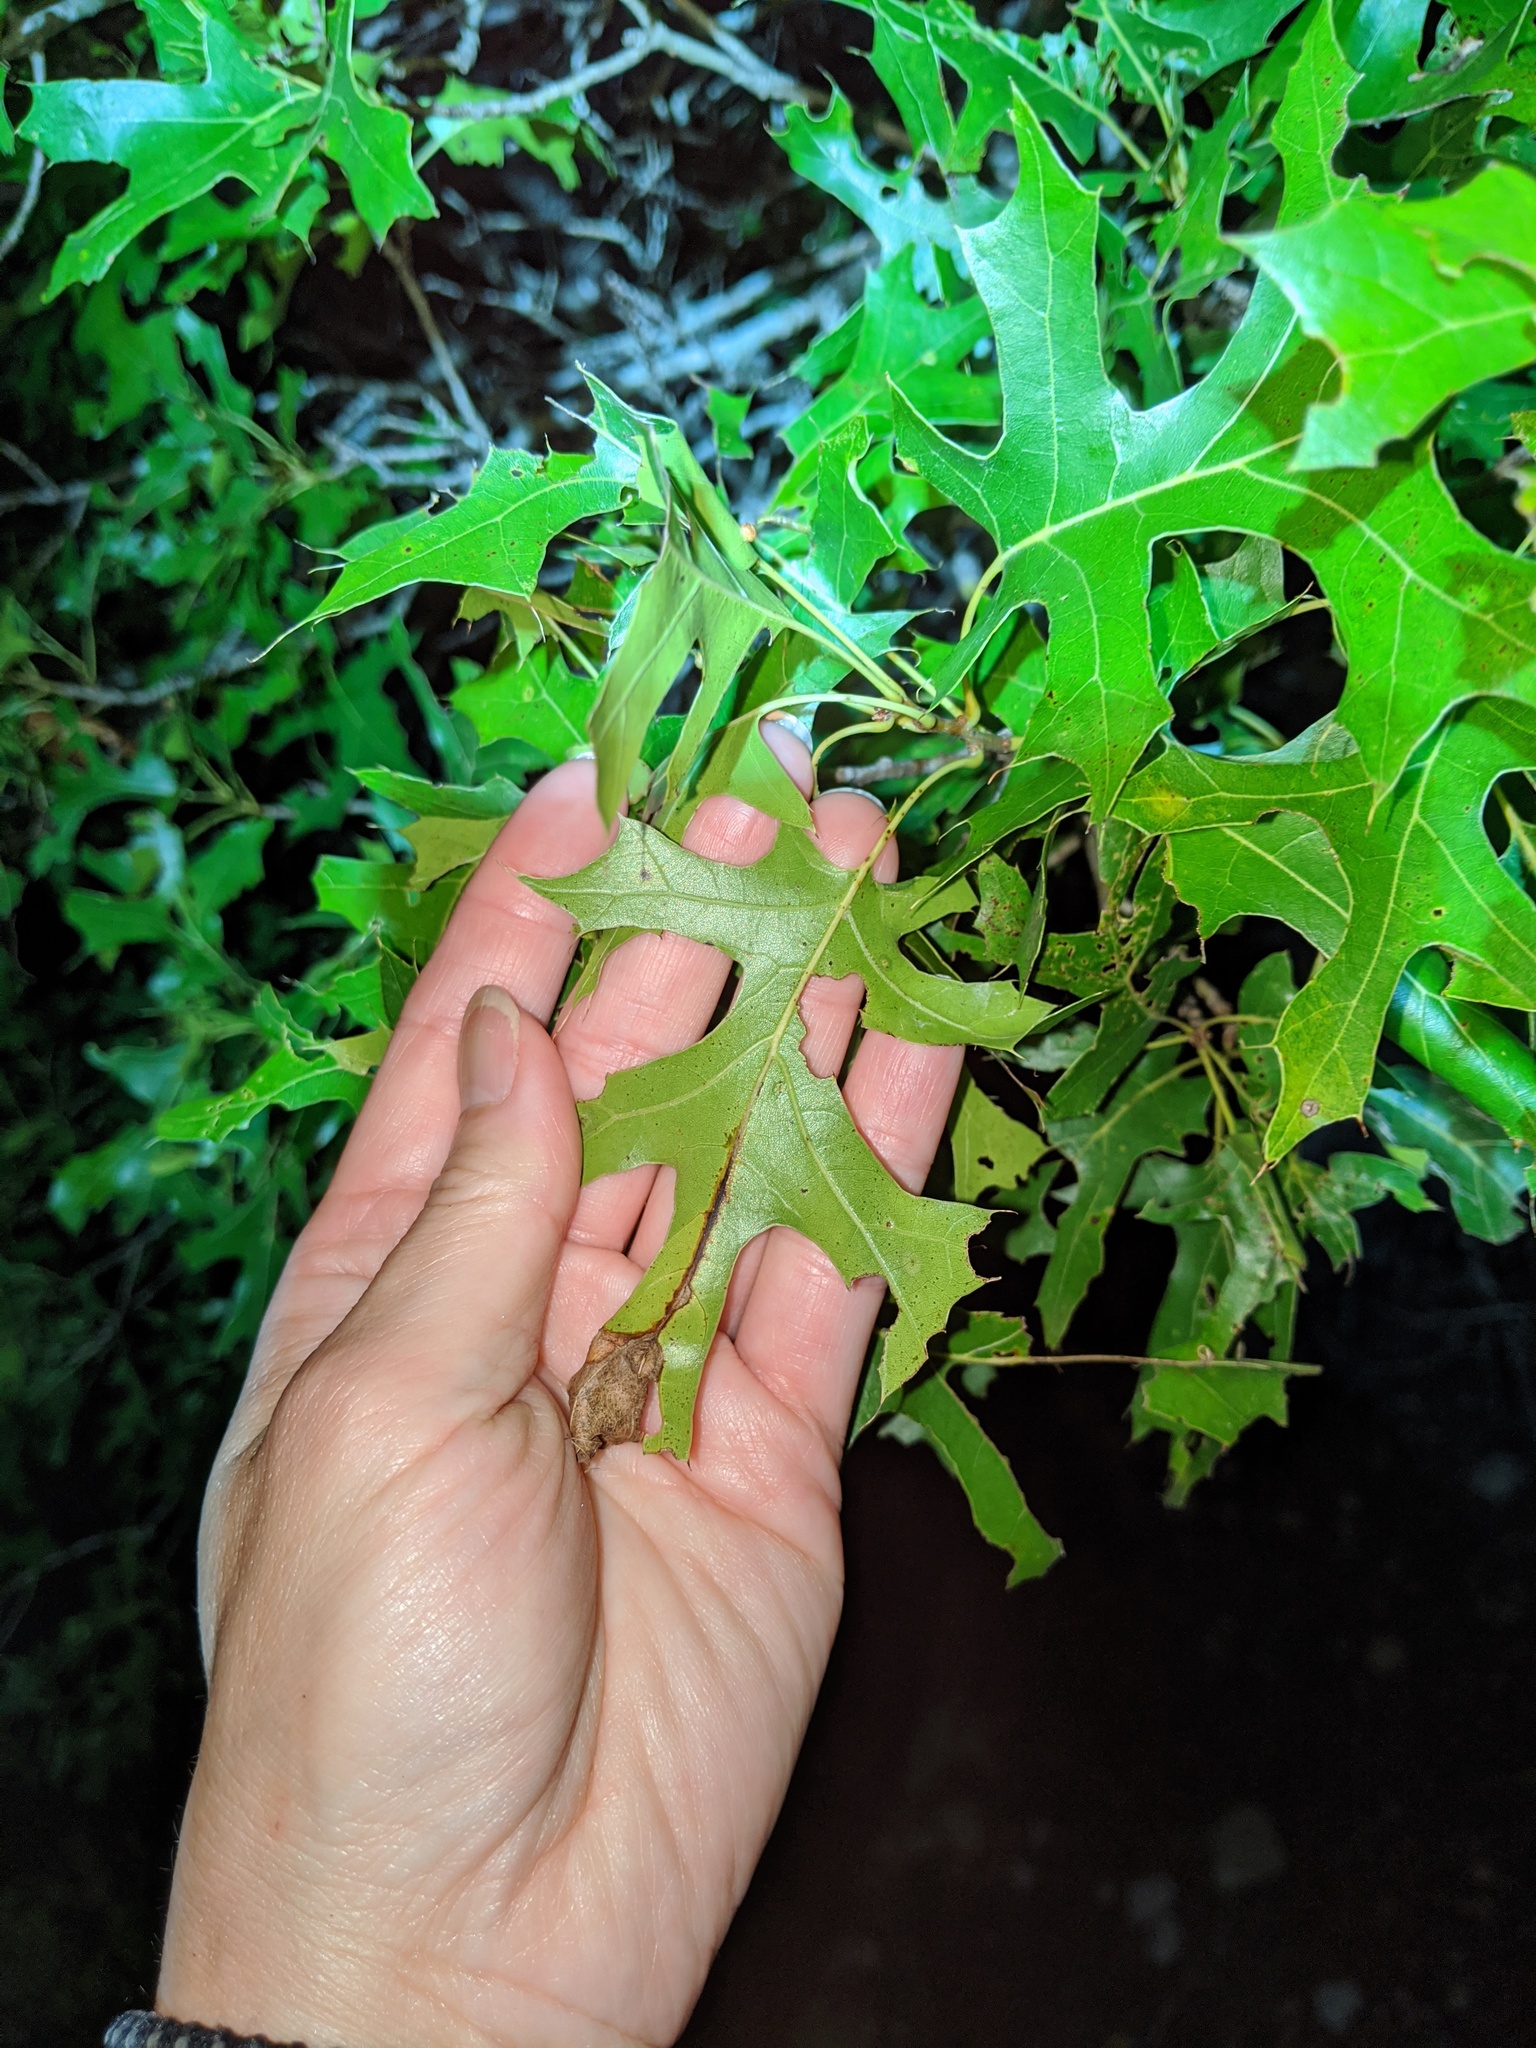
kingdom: Plantae
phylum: Tracheophyta
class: Magnoliopsida
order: Fagales
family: Fagaceae
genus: Quercus
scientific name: Quercus buckleyi
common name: Buckley oak
